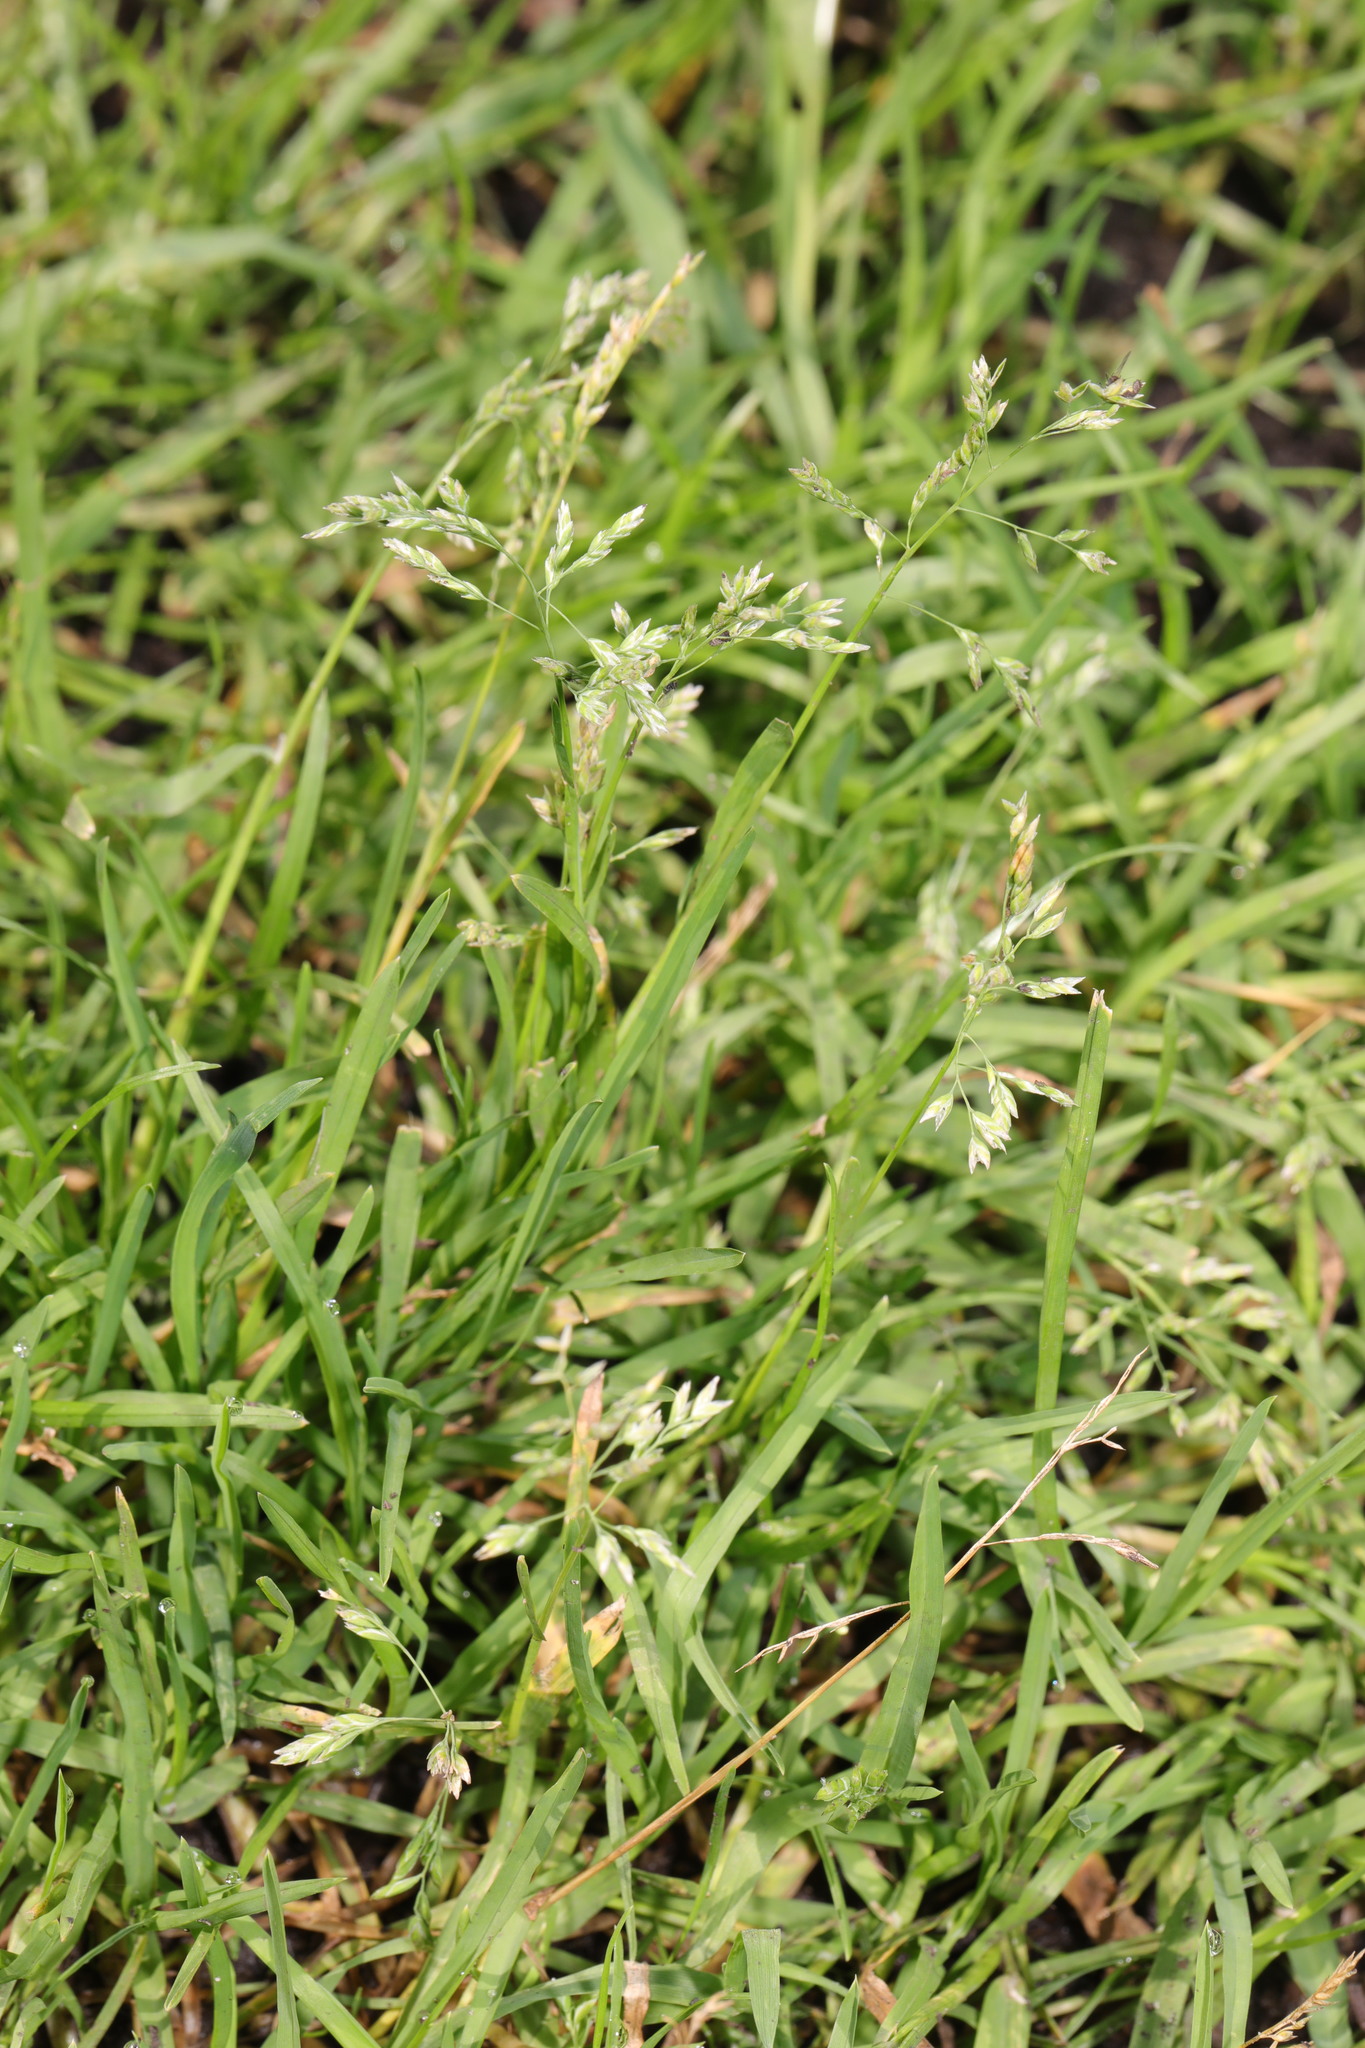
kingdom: Plantae
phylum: Tracheophyta
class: Liliopsida
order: Poales
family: Poaceae
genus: Poa
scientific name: Poa annua
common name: Annual bluegrass
